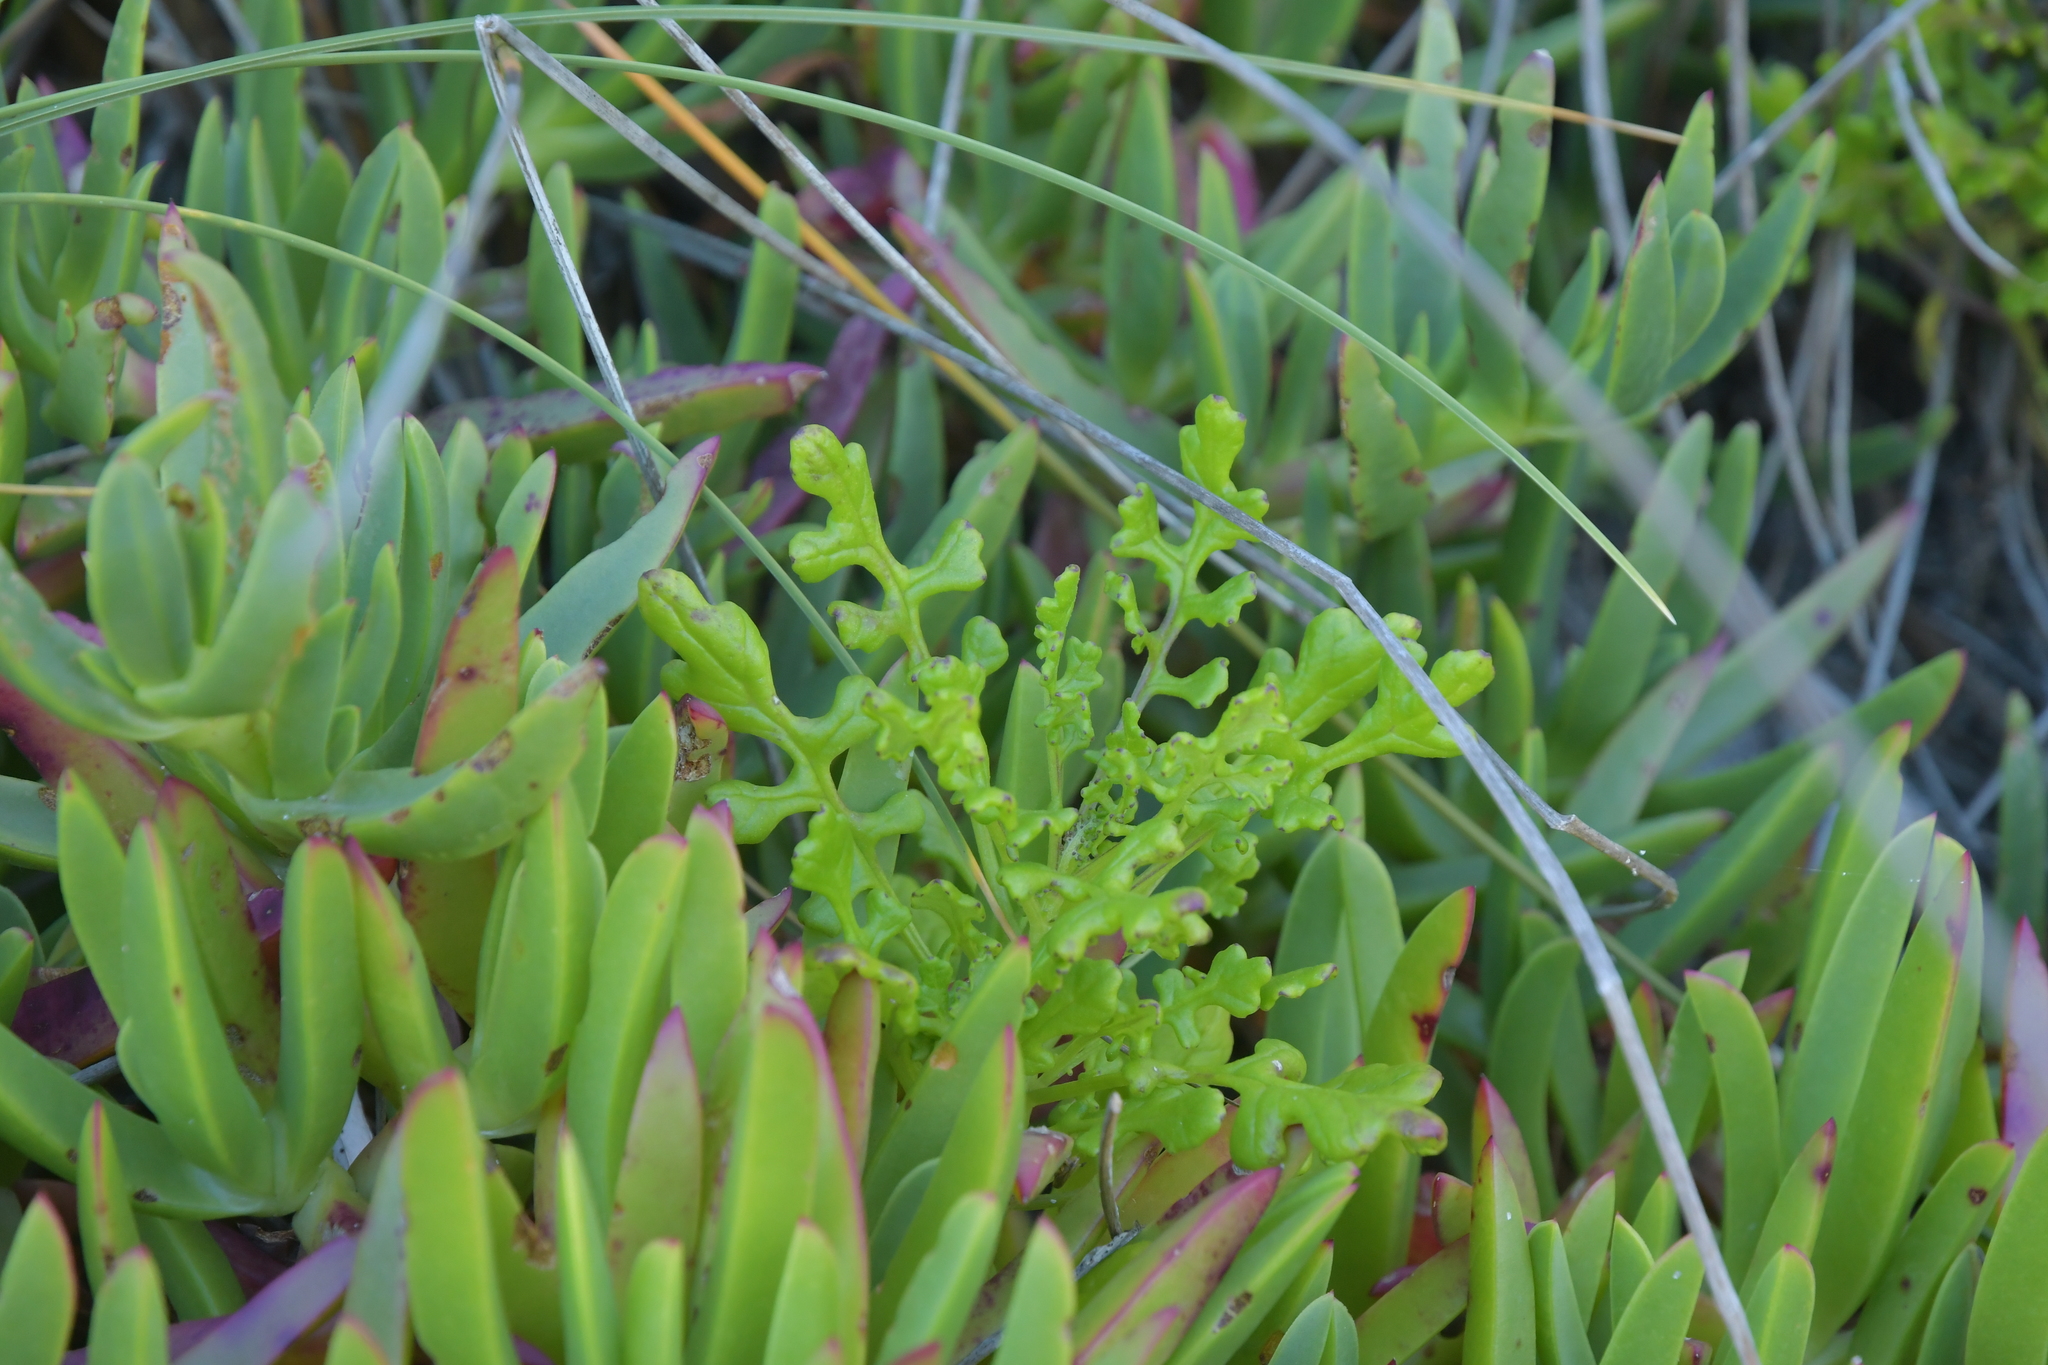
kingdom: Plantae
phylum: Tracheophyta
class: Magnoliopsida
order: Asterales
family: Asteraceae
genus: Senecio
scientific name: Senecio elegans
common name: Purple groundsel
